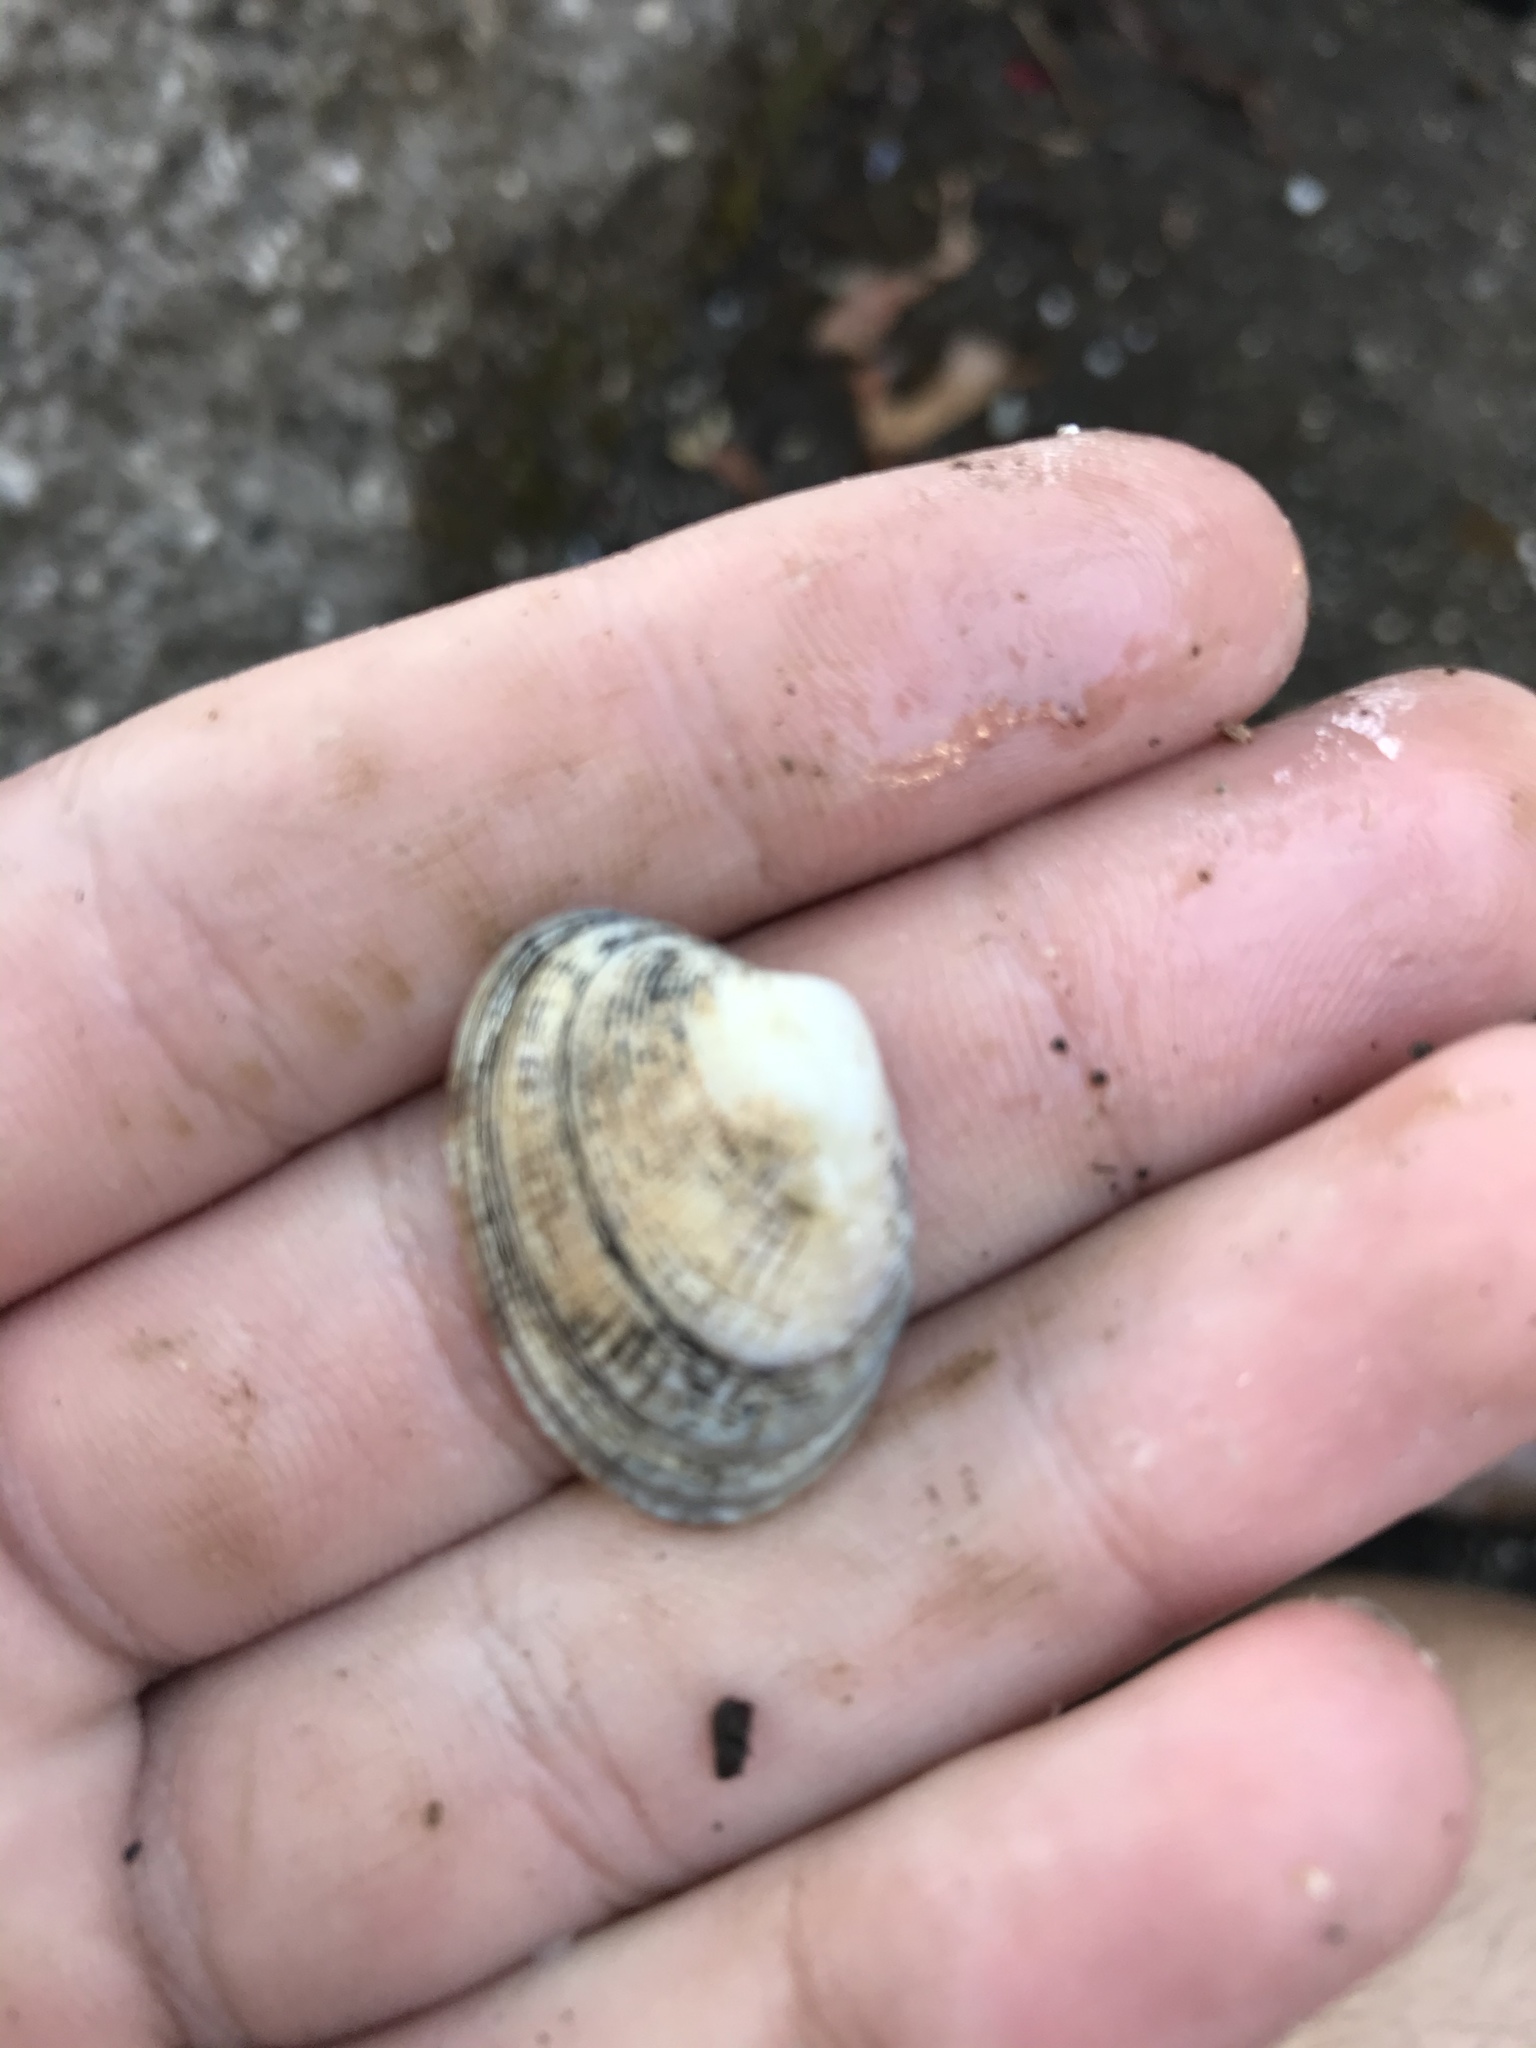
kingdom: Animalia
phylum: Mollusca
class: Bivalvia
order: Venerida
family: Veneridae
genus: Ruditapes
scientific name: Ruditapes philippinarum
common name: Manila clam
